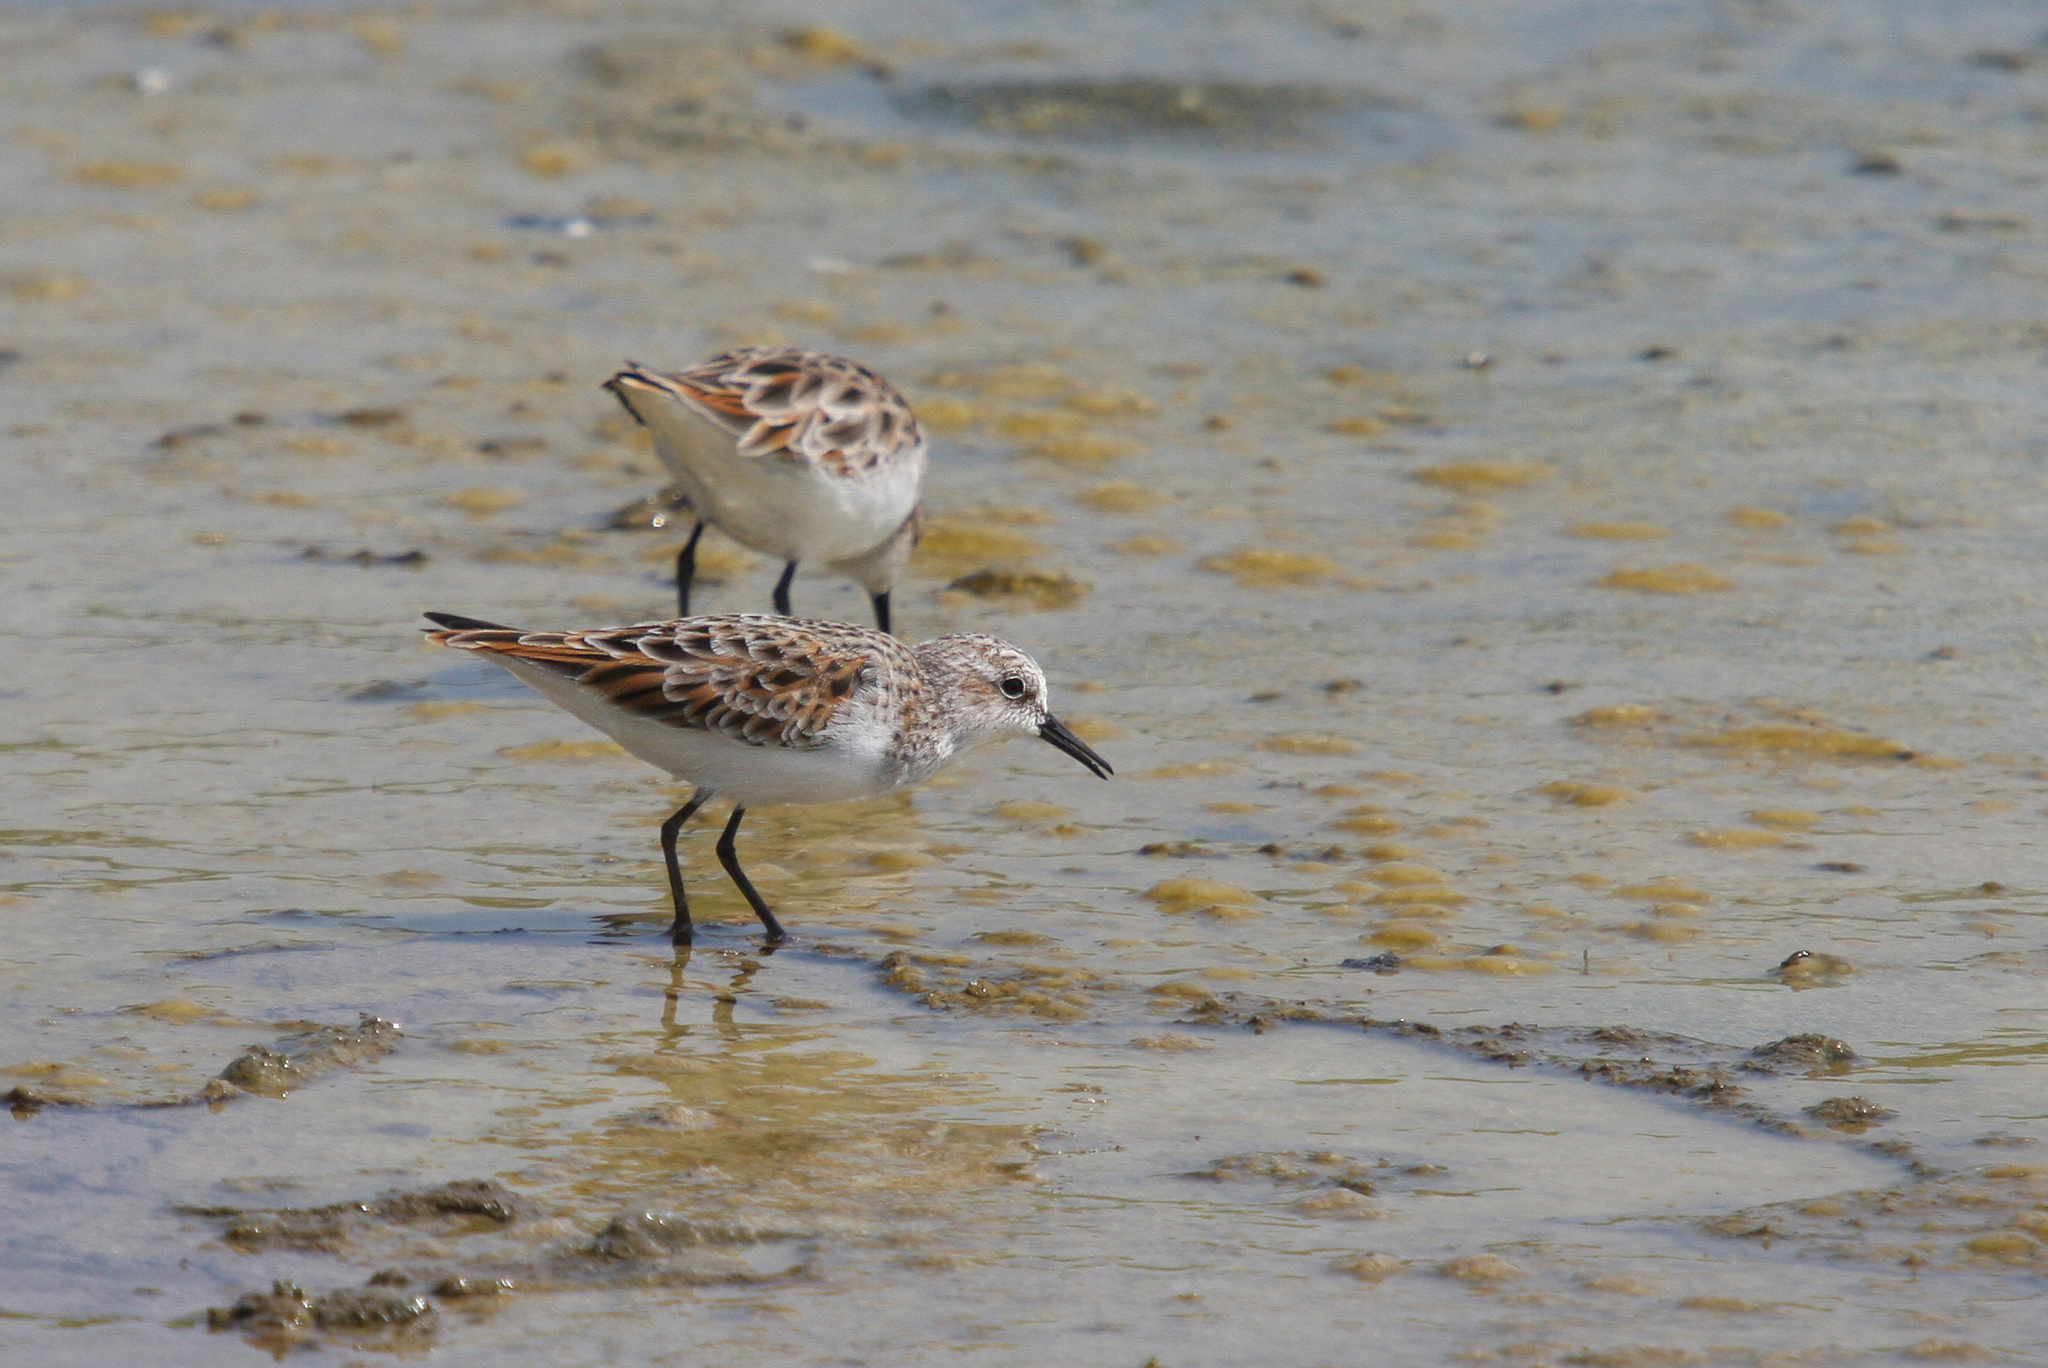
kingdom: Animalia
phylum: Chordata
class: Aves
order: Charadriiformes
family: Scolopacidae
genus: Calidris
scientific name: Calidris minuta
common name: Little stint
